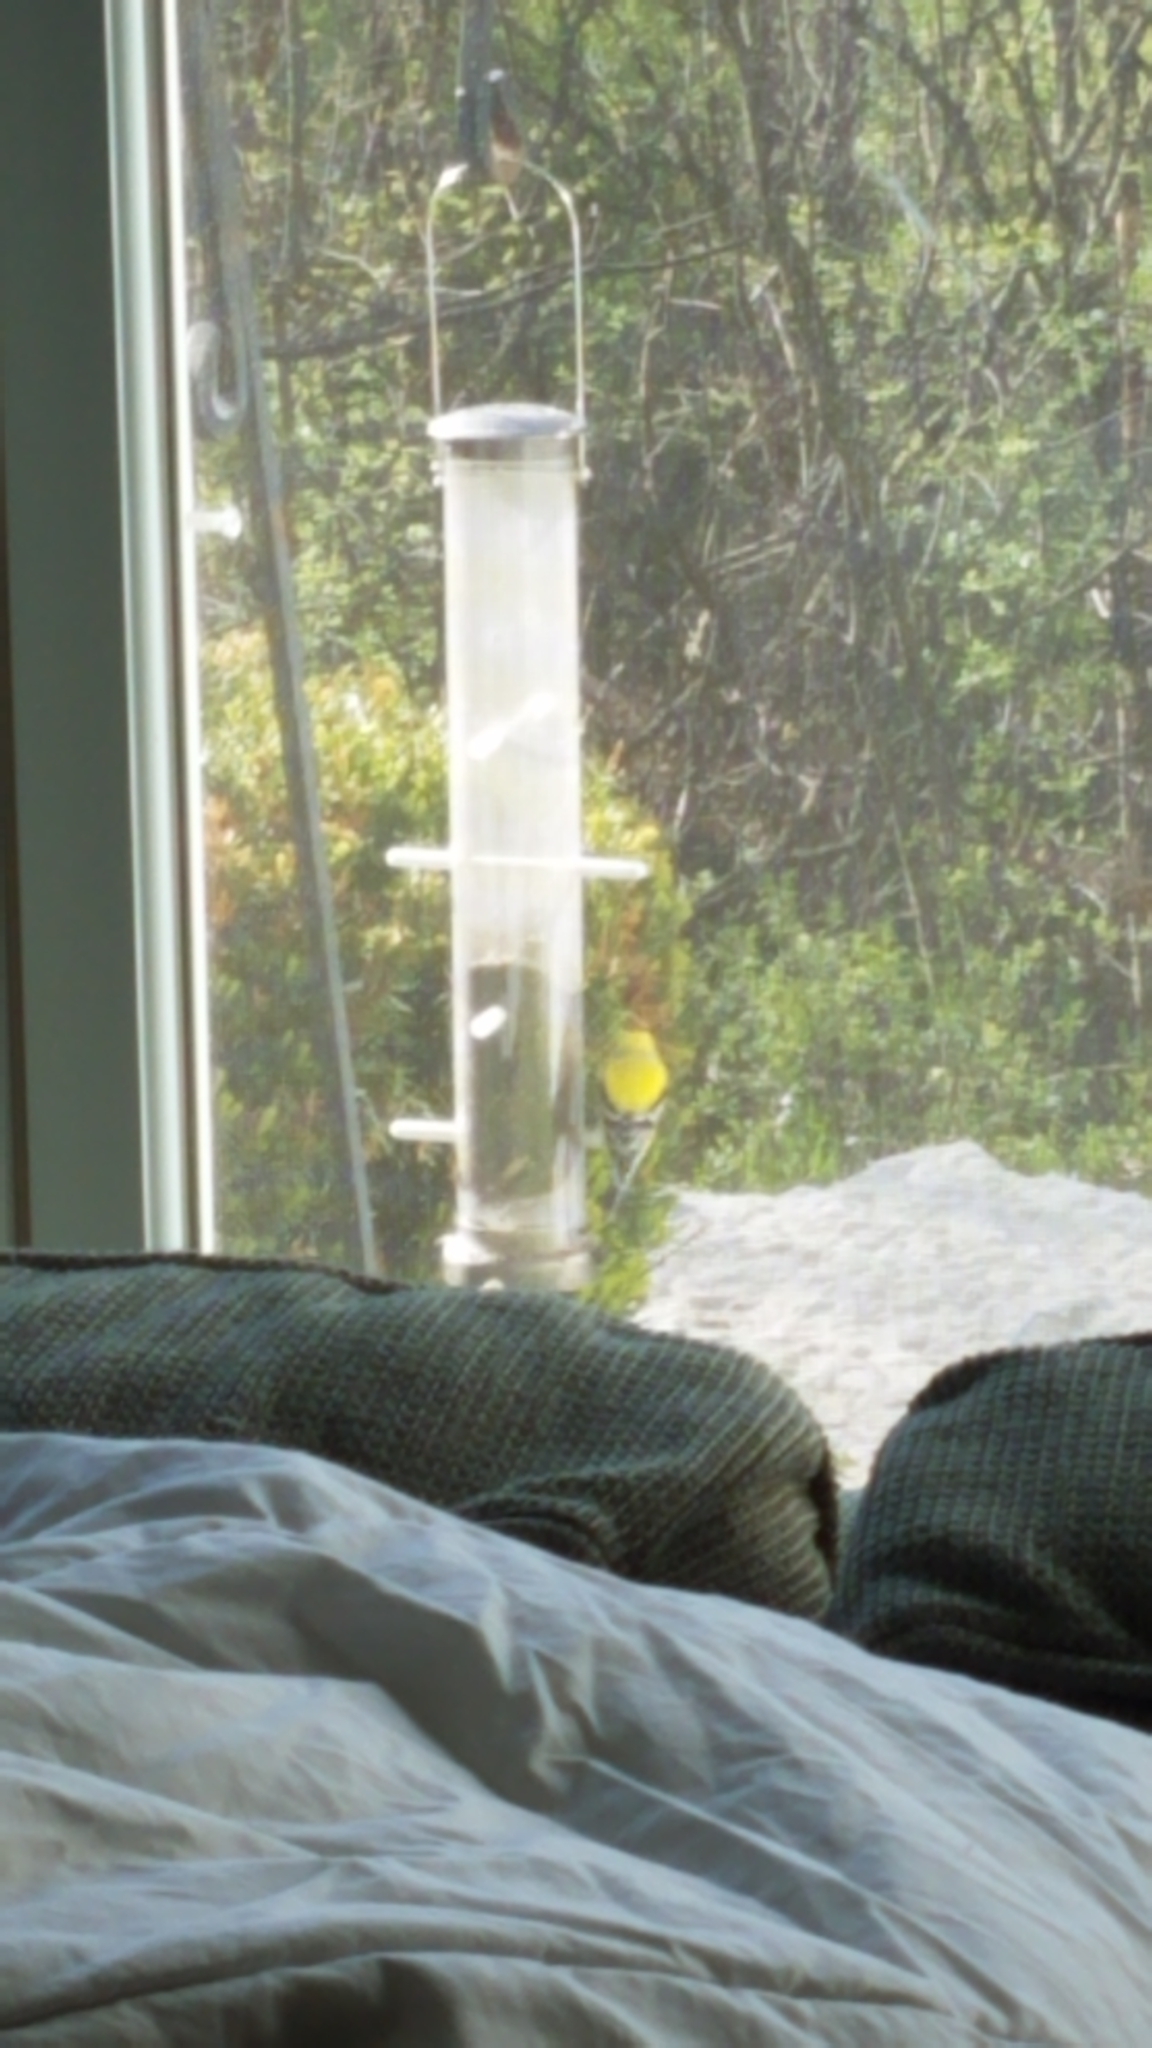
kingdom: Animalia
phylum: Chordata
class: Aves
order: Passeriformes
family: Fringillidae
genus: Spinus
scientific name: Spinus tristis
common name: American goldfinch
